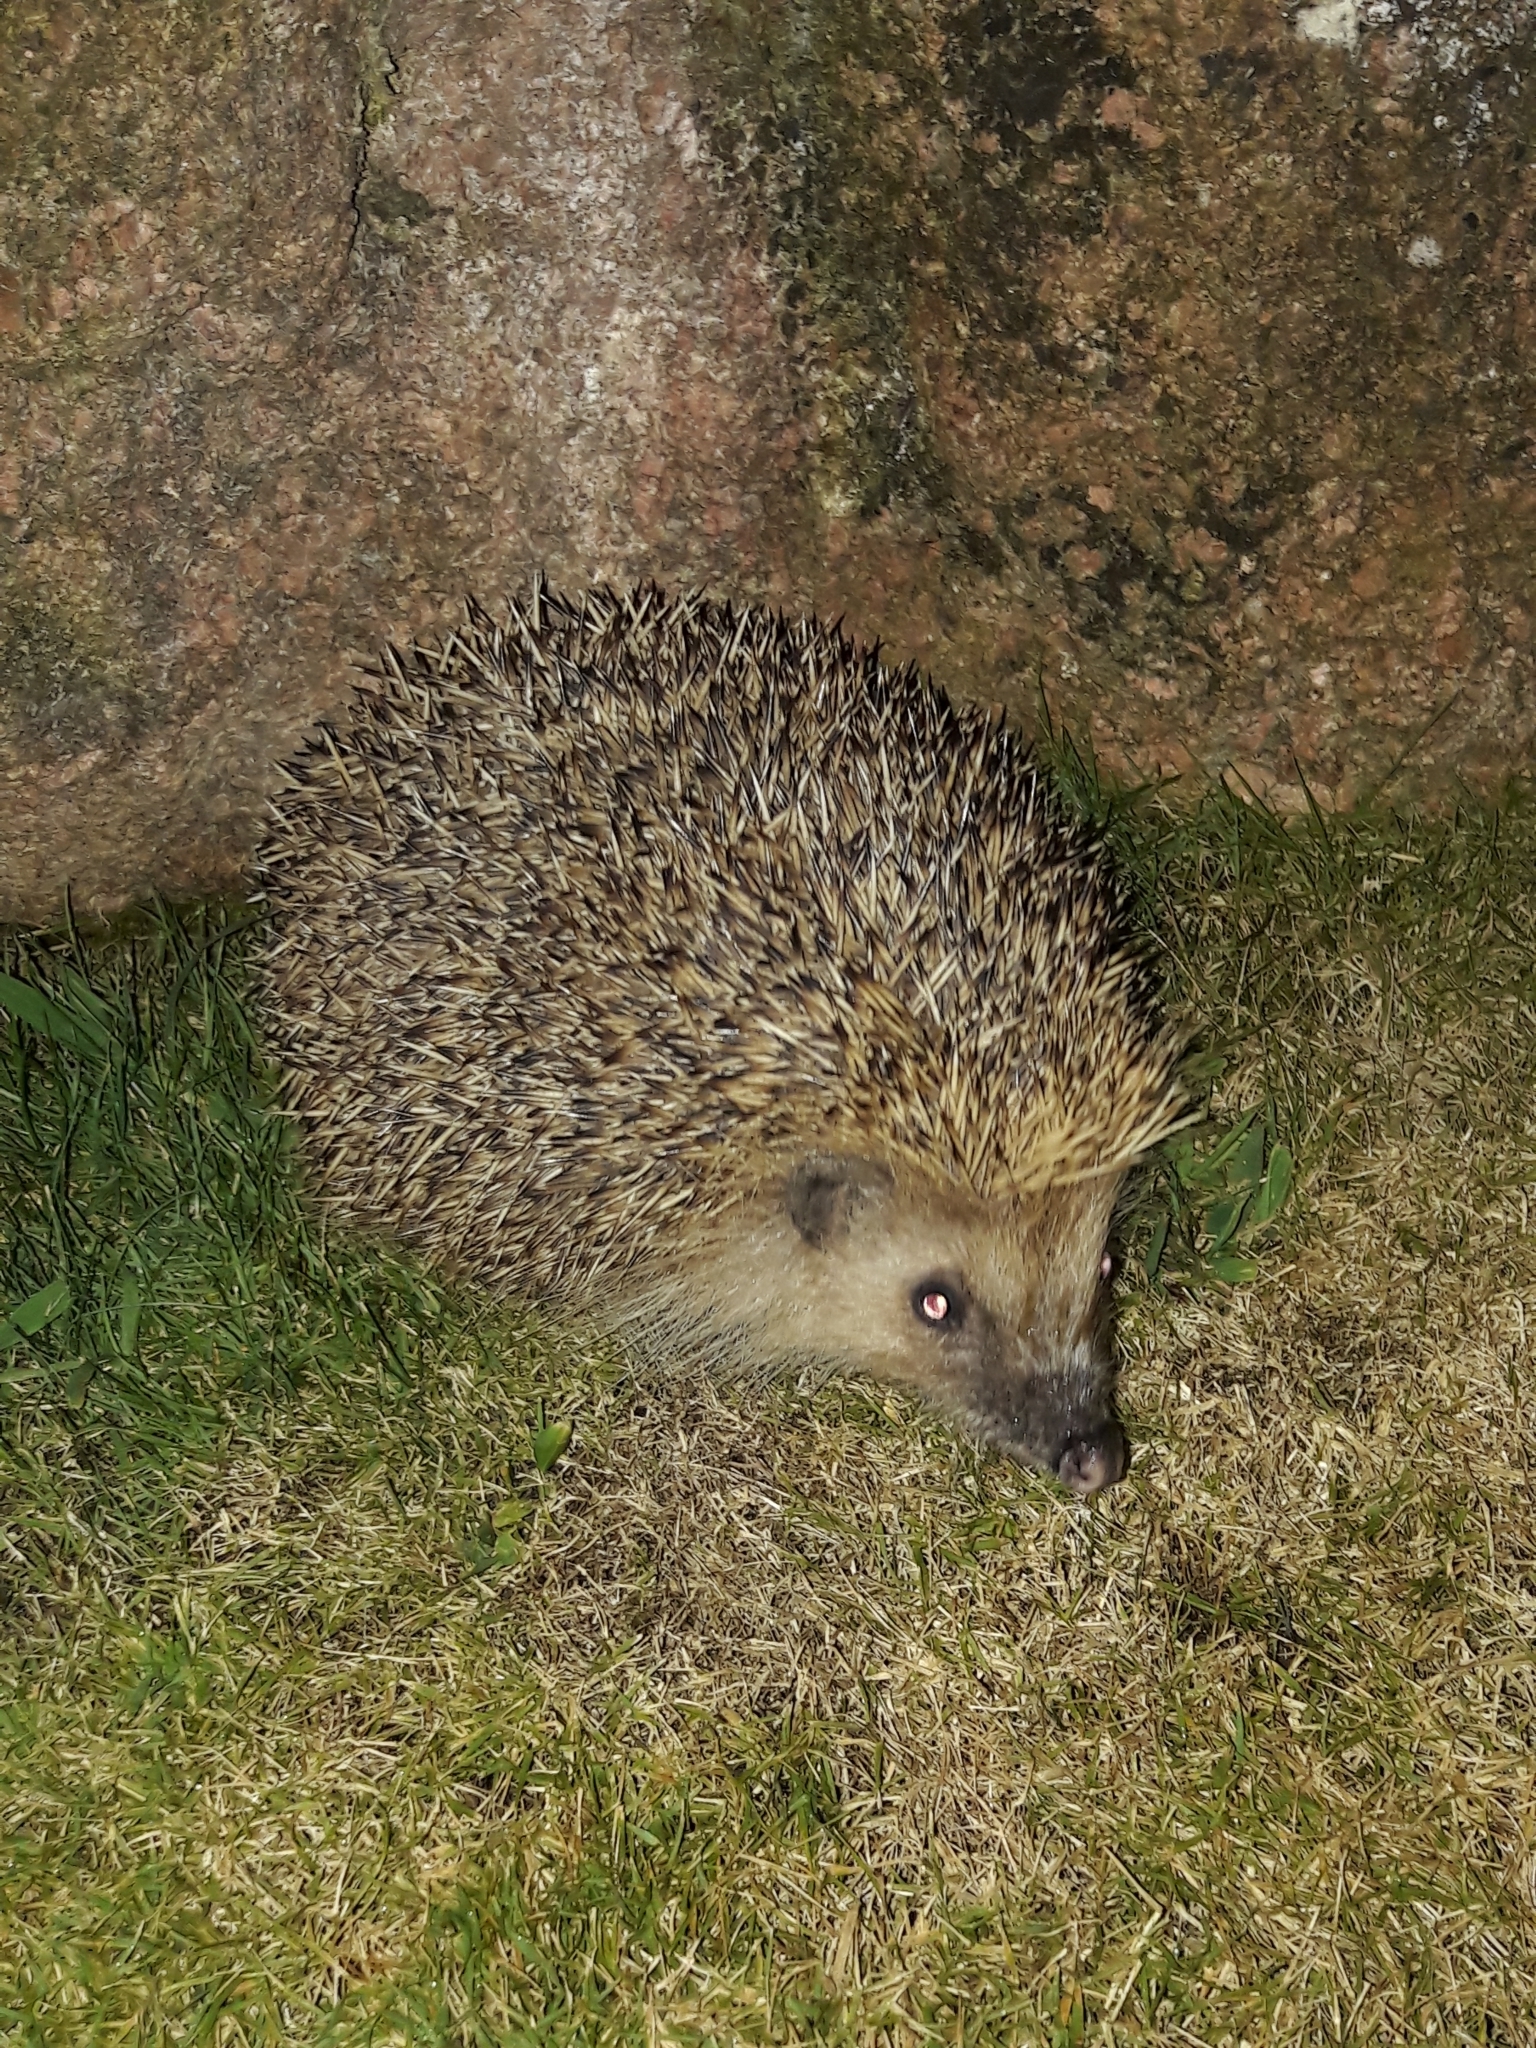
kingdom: Animalia
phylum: Chordata
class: Mammalia
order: Erinaceomorpha
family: Erinaceidae
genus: Erinaceus
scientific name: Erinaceus europaeus
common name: West european hedgehog
